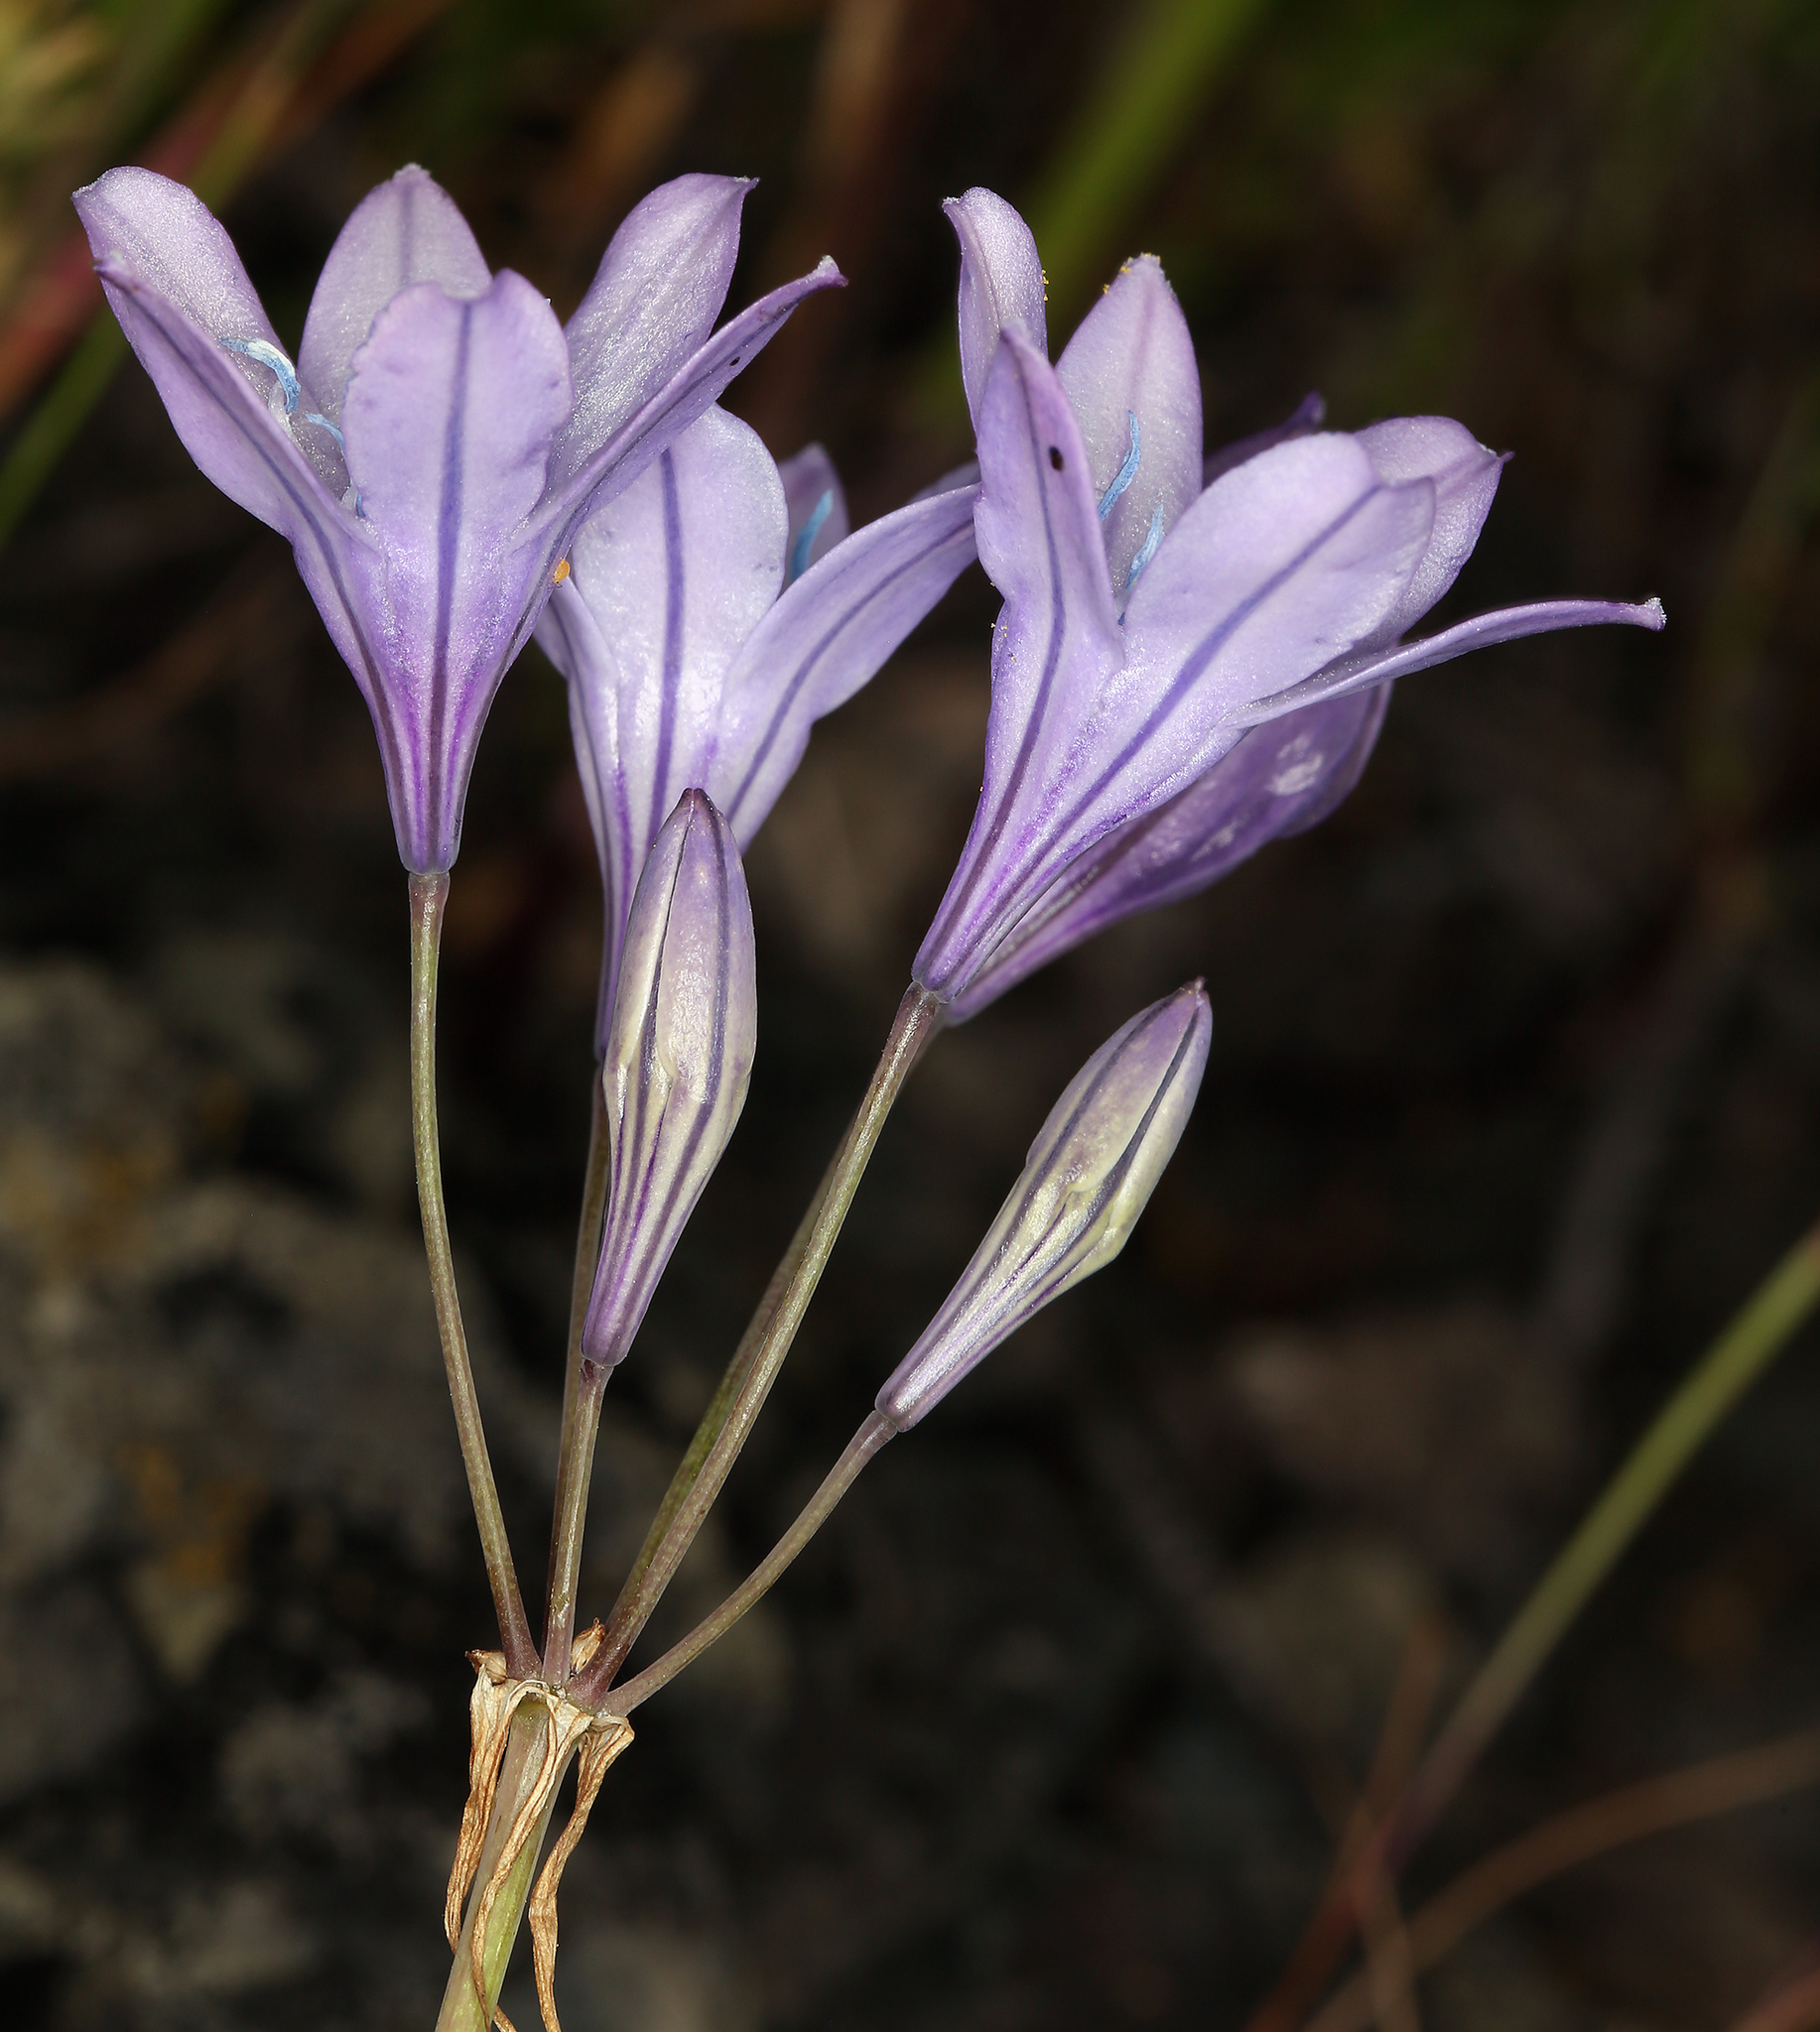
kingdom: Plantae
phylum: Tracheophyta
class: Liliopsida
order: Asparagales
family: Asparagaceae
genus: Triteleia
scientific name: Triteleia laxa
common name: Triplet-lily
